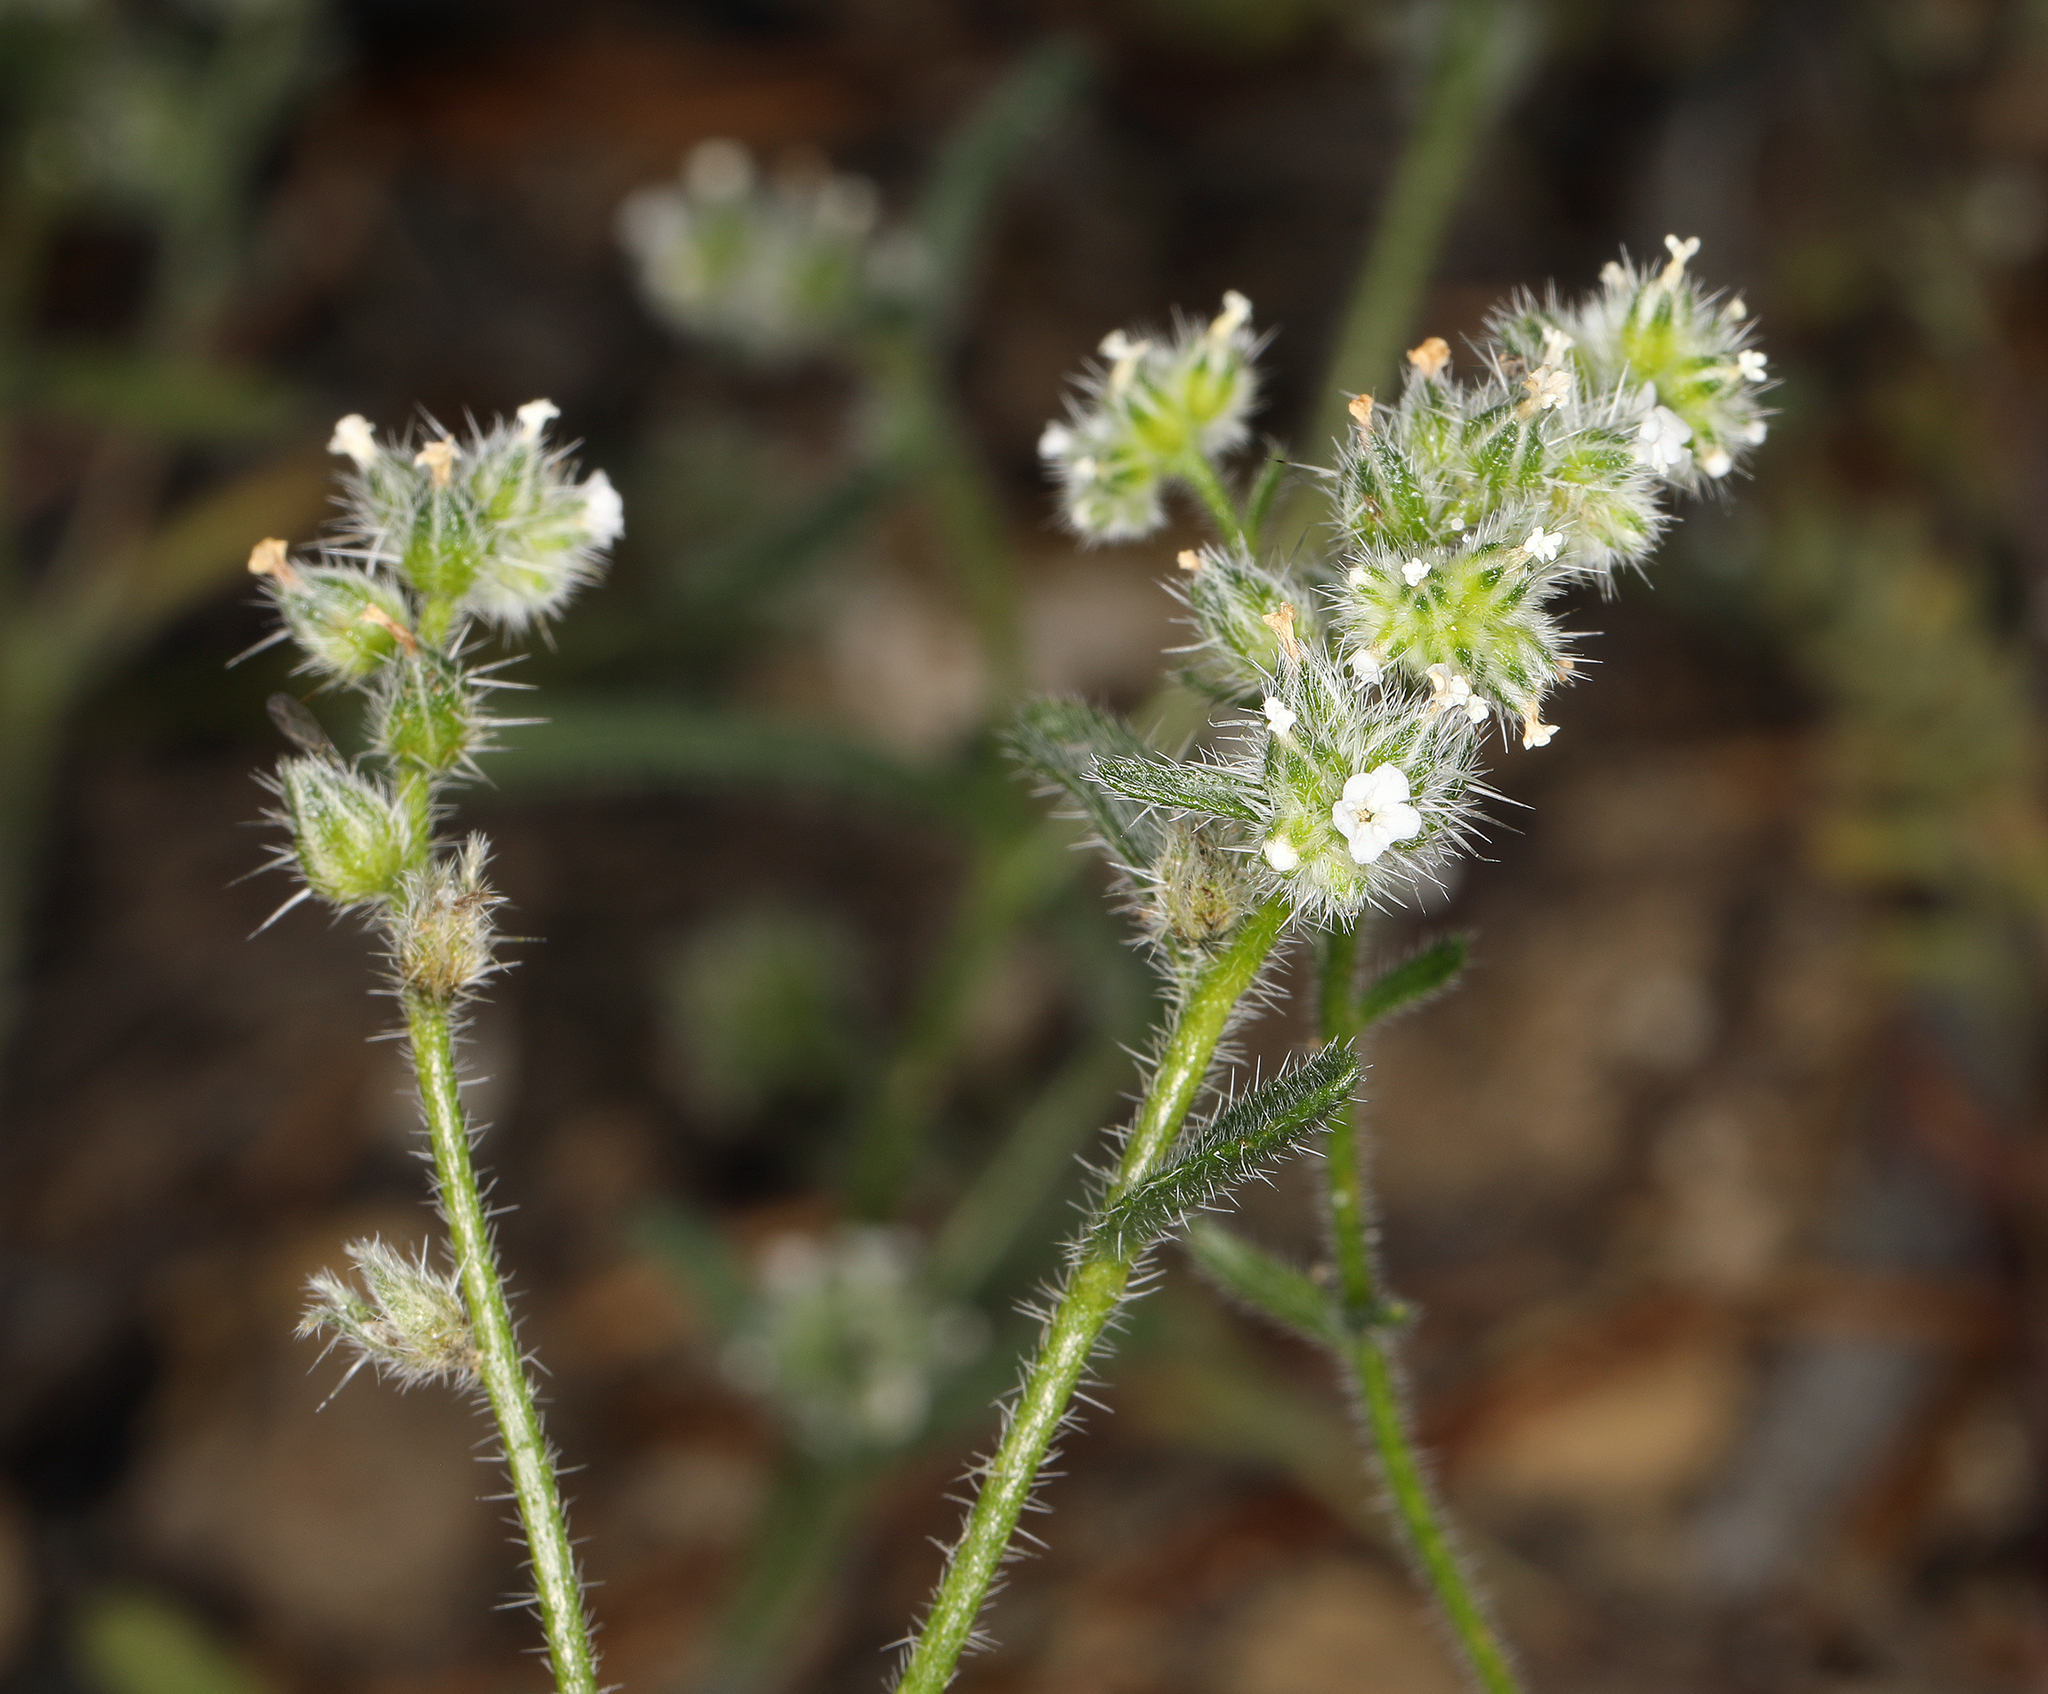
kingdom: Plantae
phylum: Tracheophyta
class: Magnoliopsida
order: Boraginales
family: Boraginaceae
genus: Cryptantha
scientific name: Cryptantha gracilis
